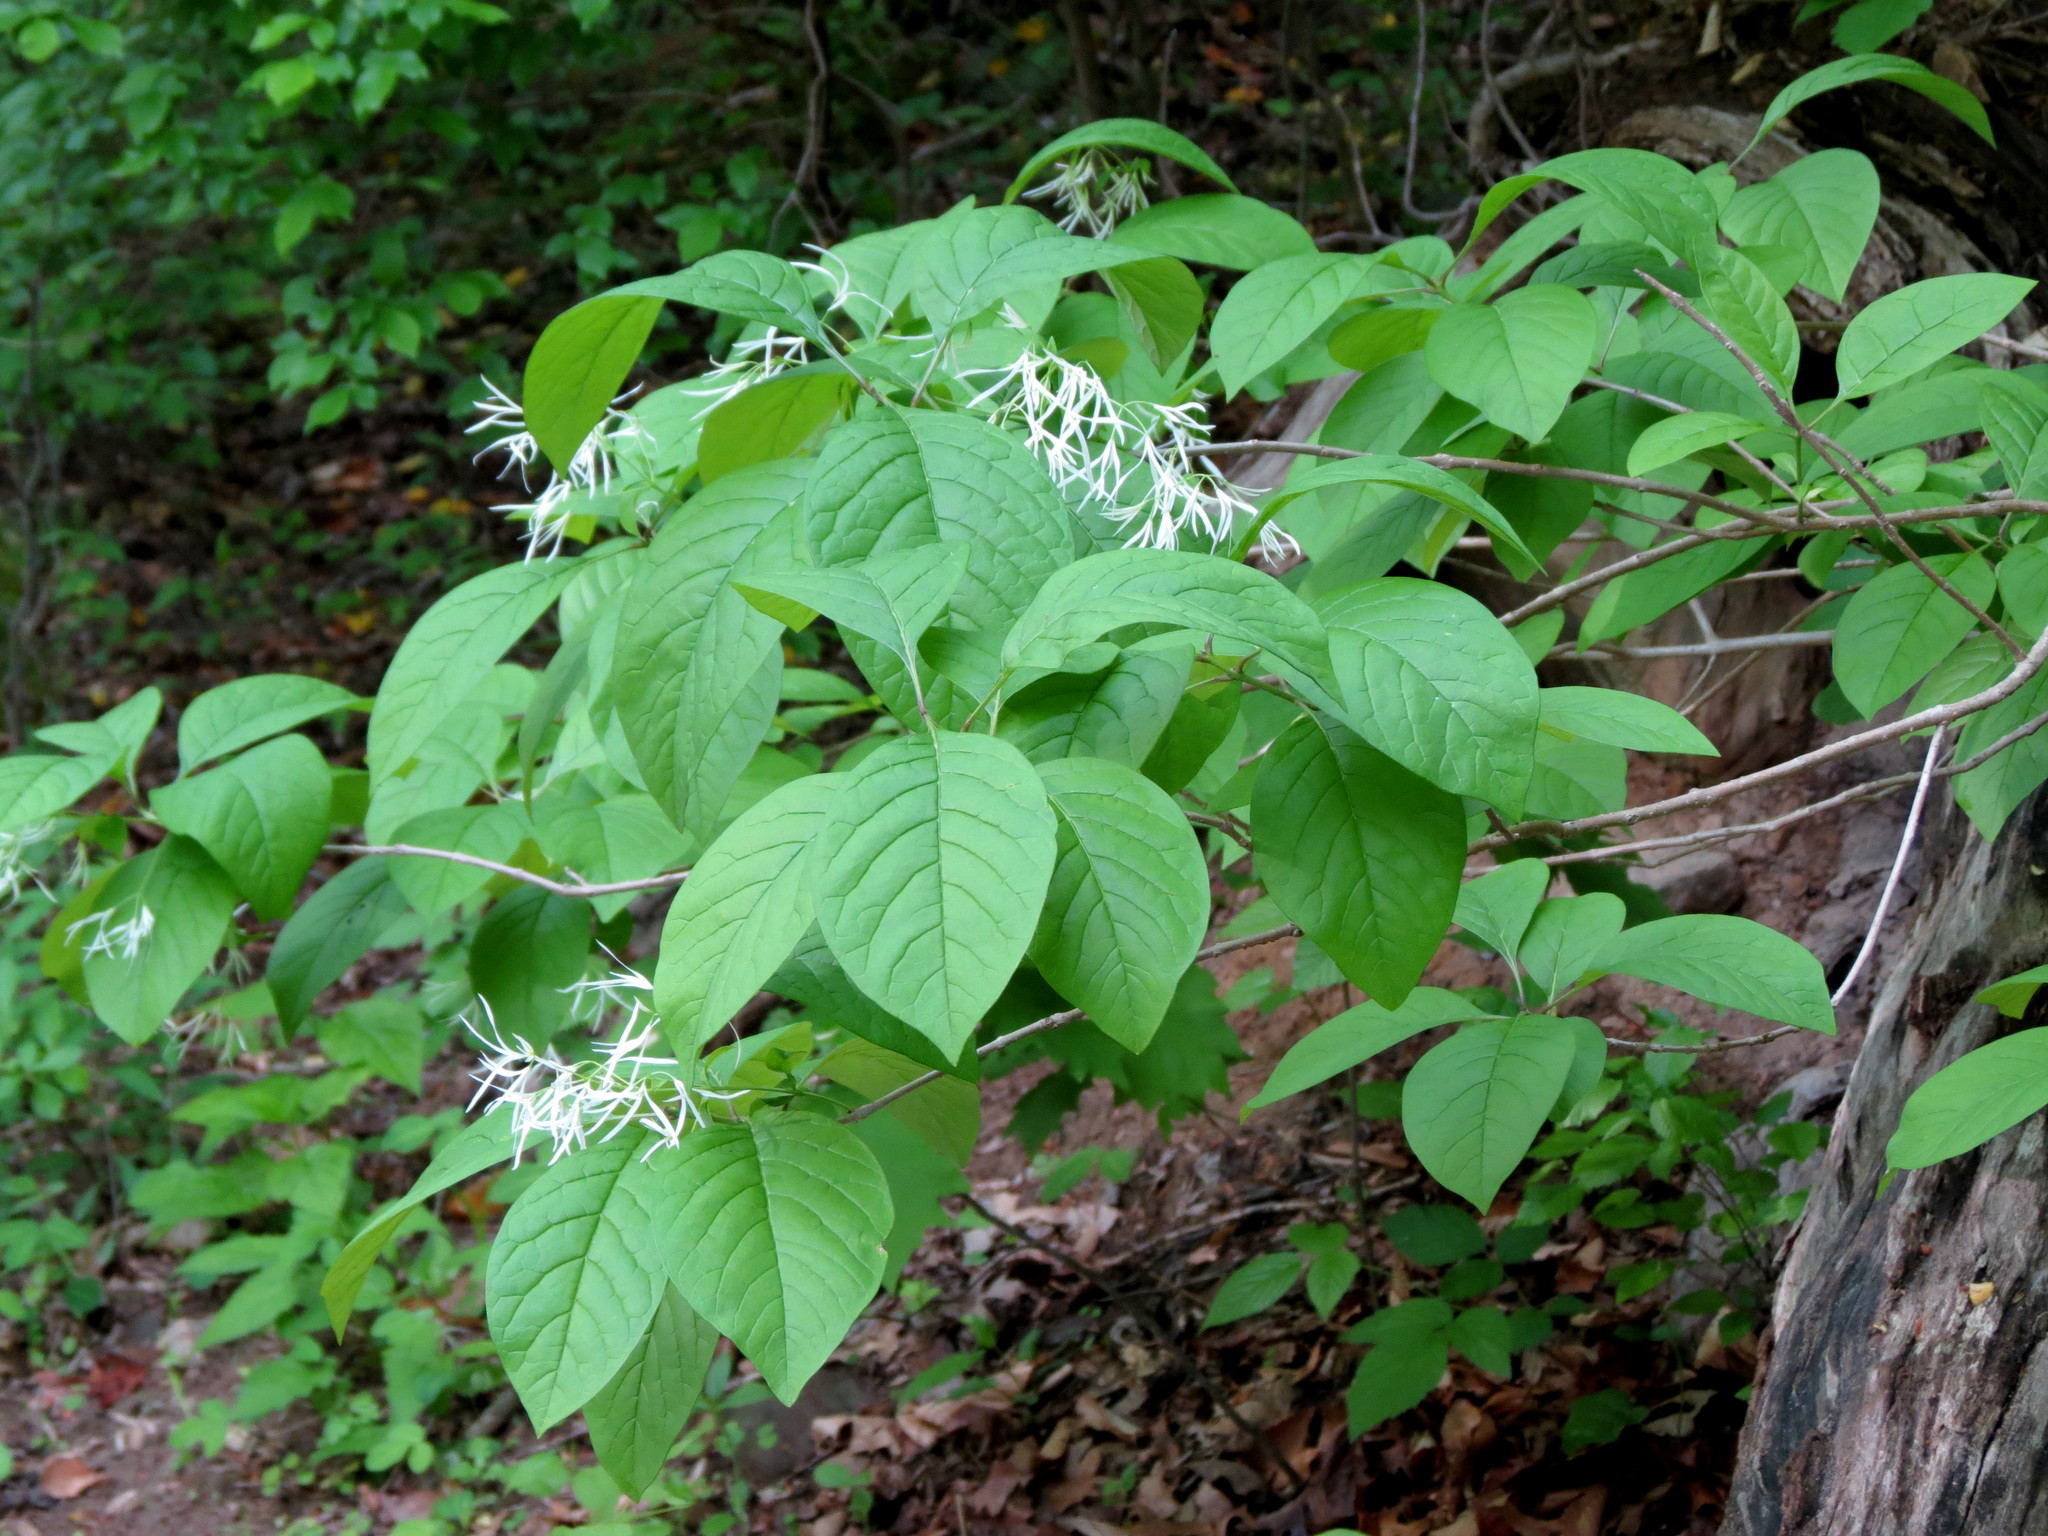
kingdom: Plantae
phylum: Tracheophyta
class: Magnoliopsida
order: Lamiales
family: Oleaceae
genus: Chionanthus
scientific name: Chionanthus virginicus
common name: American fringetree
